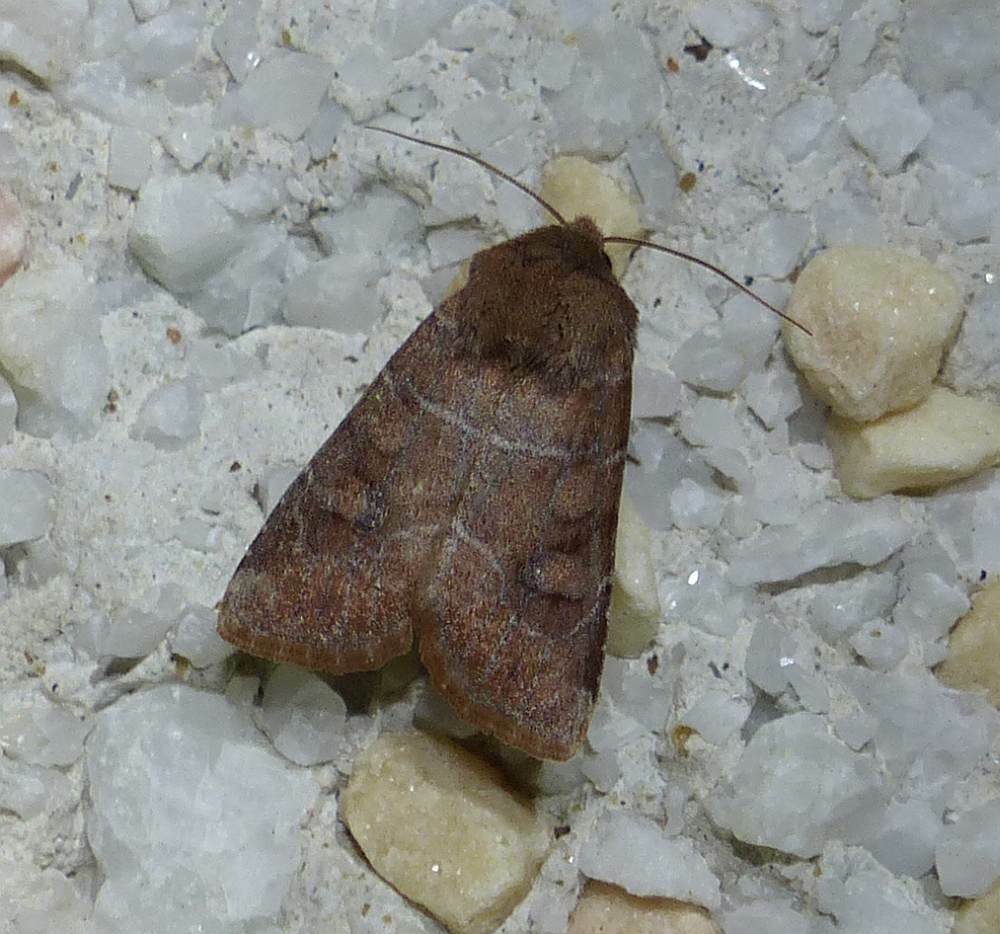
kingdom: Animalia
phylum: Arthropoda
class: Insecta
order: Lepidoptera
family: Noctuidae
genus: Crocigrapha
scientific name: Crocigrapha normani
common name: Norman's quaker
